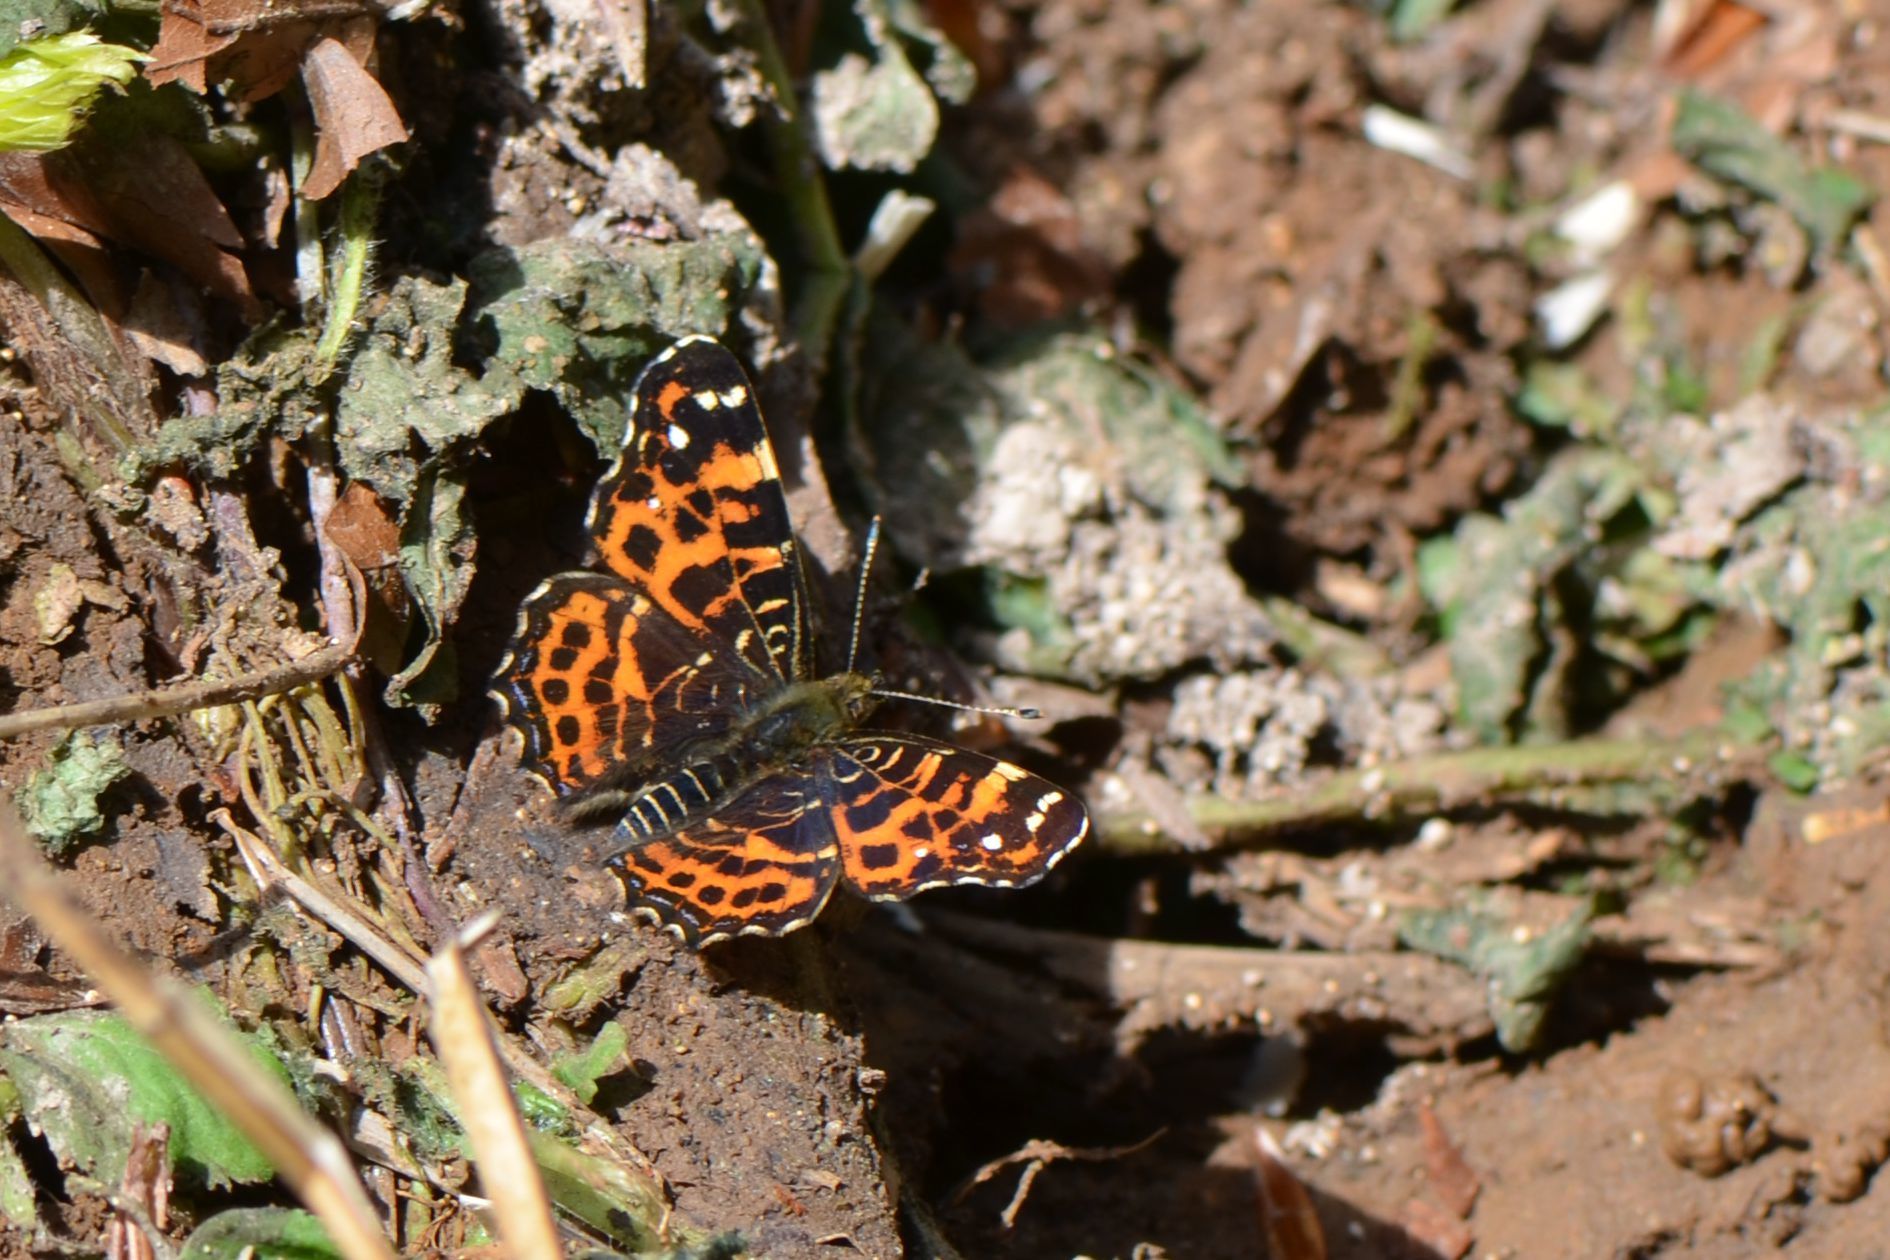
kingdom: Animalia
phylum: Arthropoda
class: Insecta
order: Lepidoptera
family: Nymphalidae
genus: Araschnia
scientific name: Araschnia levana
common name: Map butterfly
